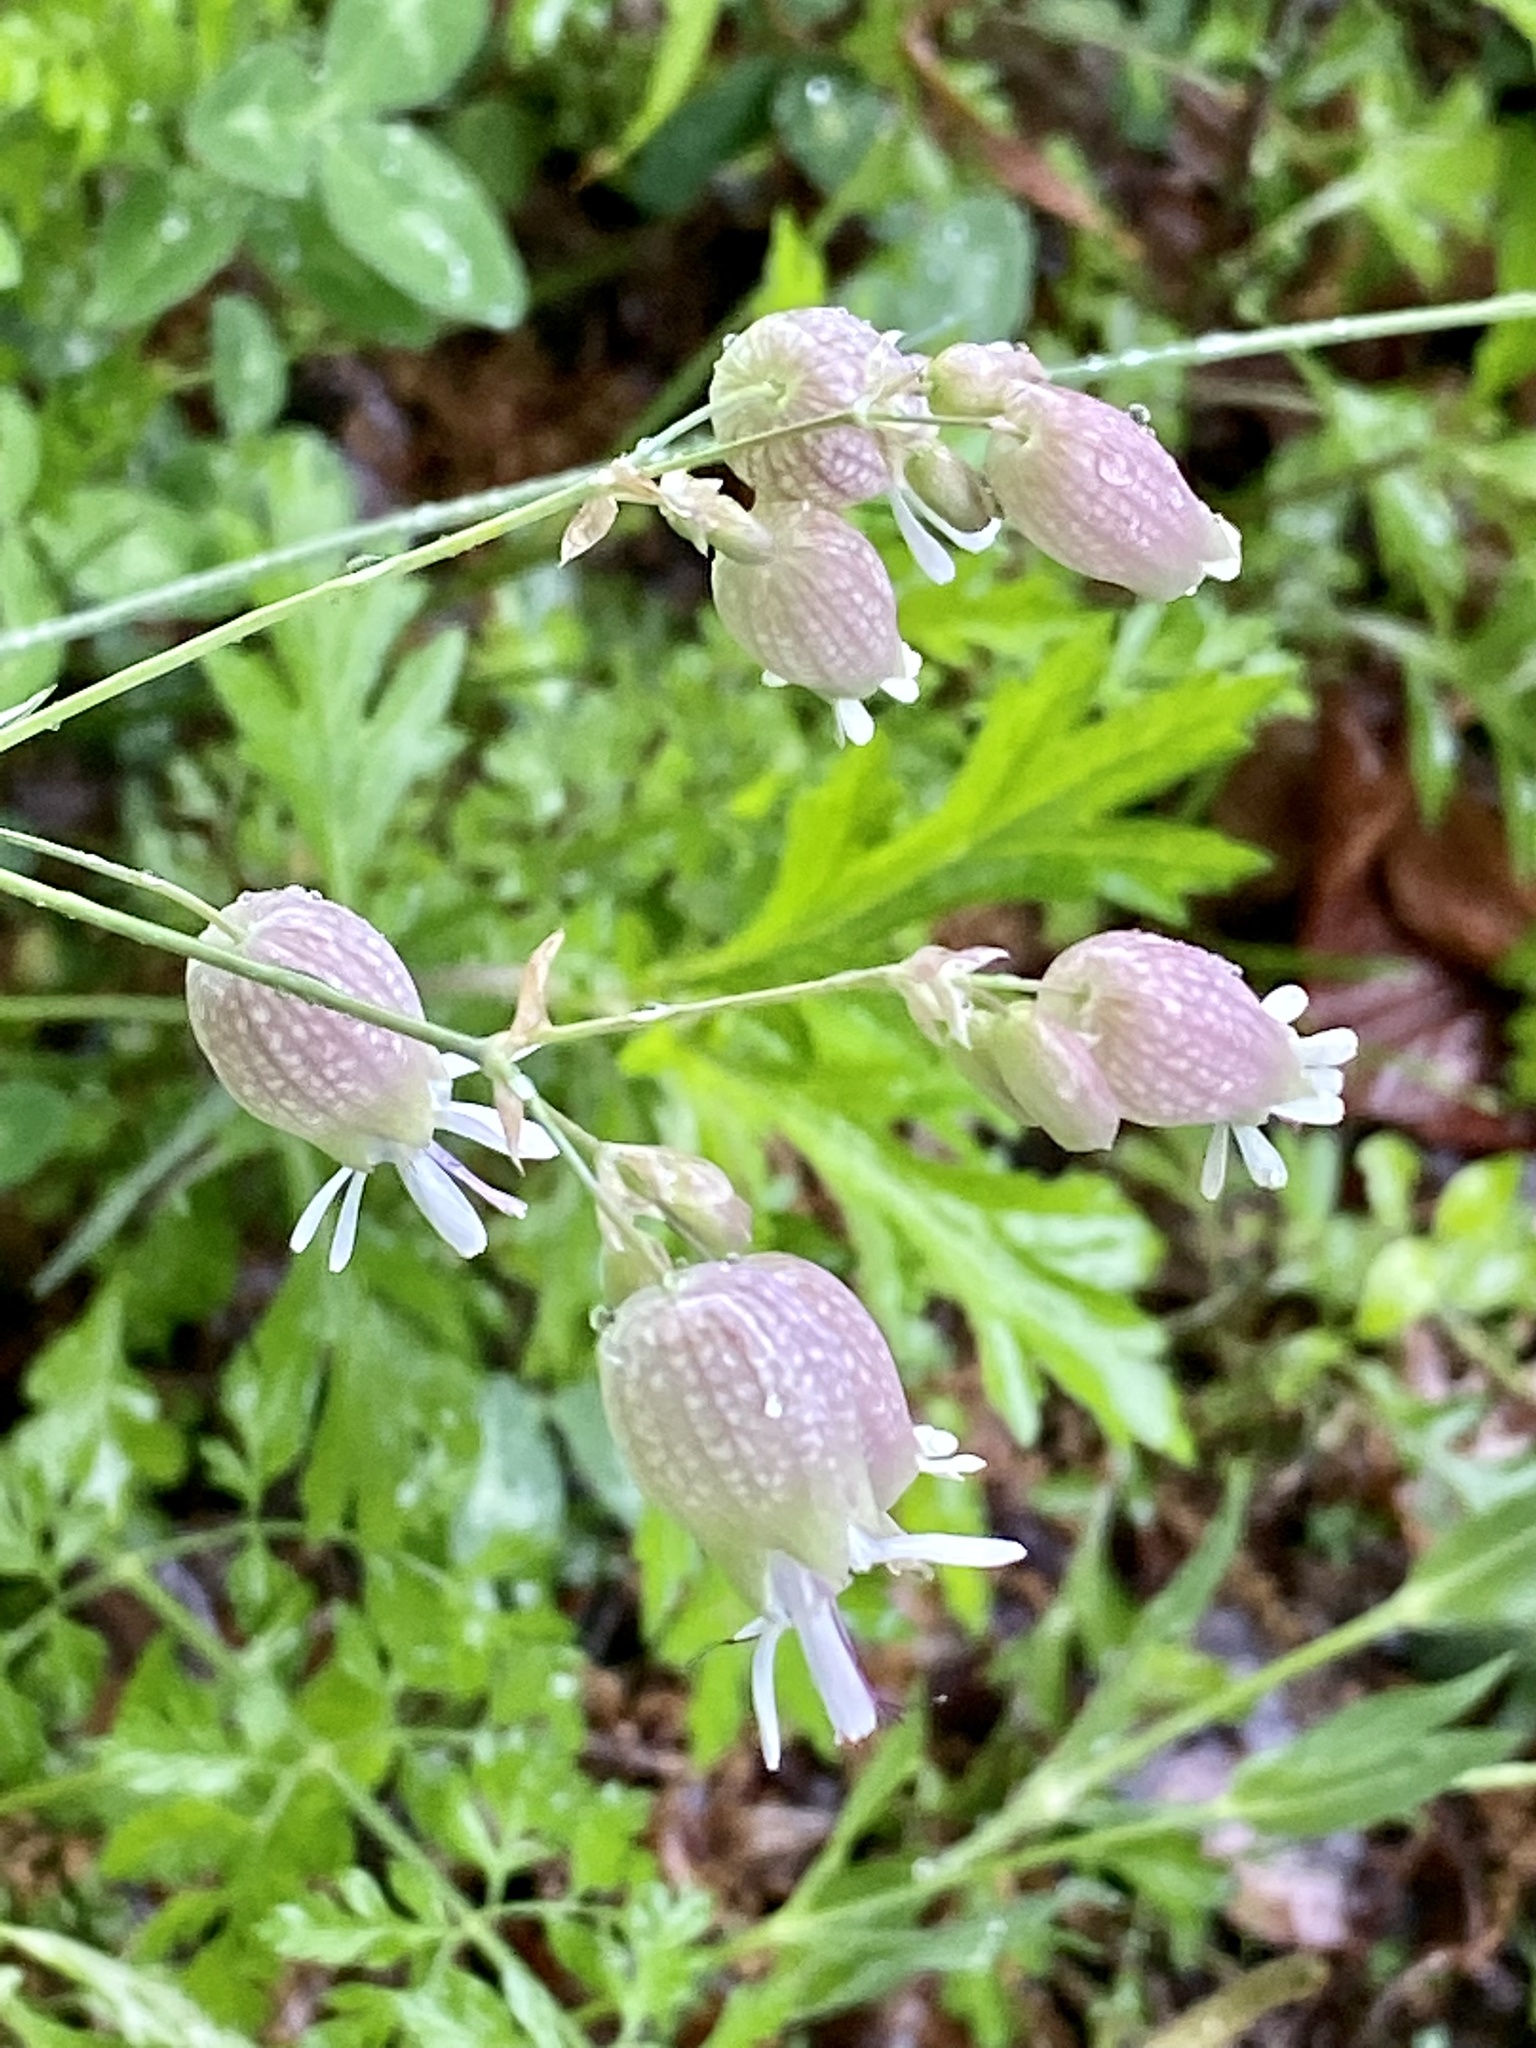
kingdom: Plantae
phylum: Tracheophyta
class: Magnoliopsida
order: Caryophyllales
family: Caryophyllaceae
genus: Silene
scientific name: Silene vulgaris
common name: Bladder campion
